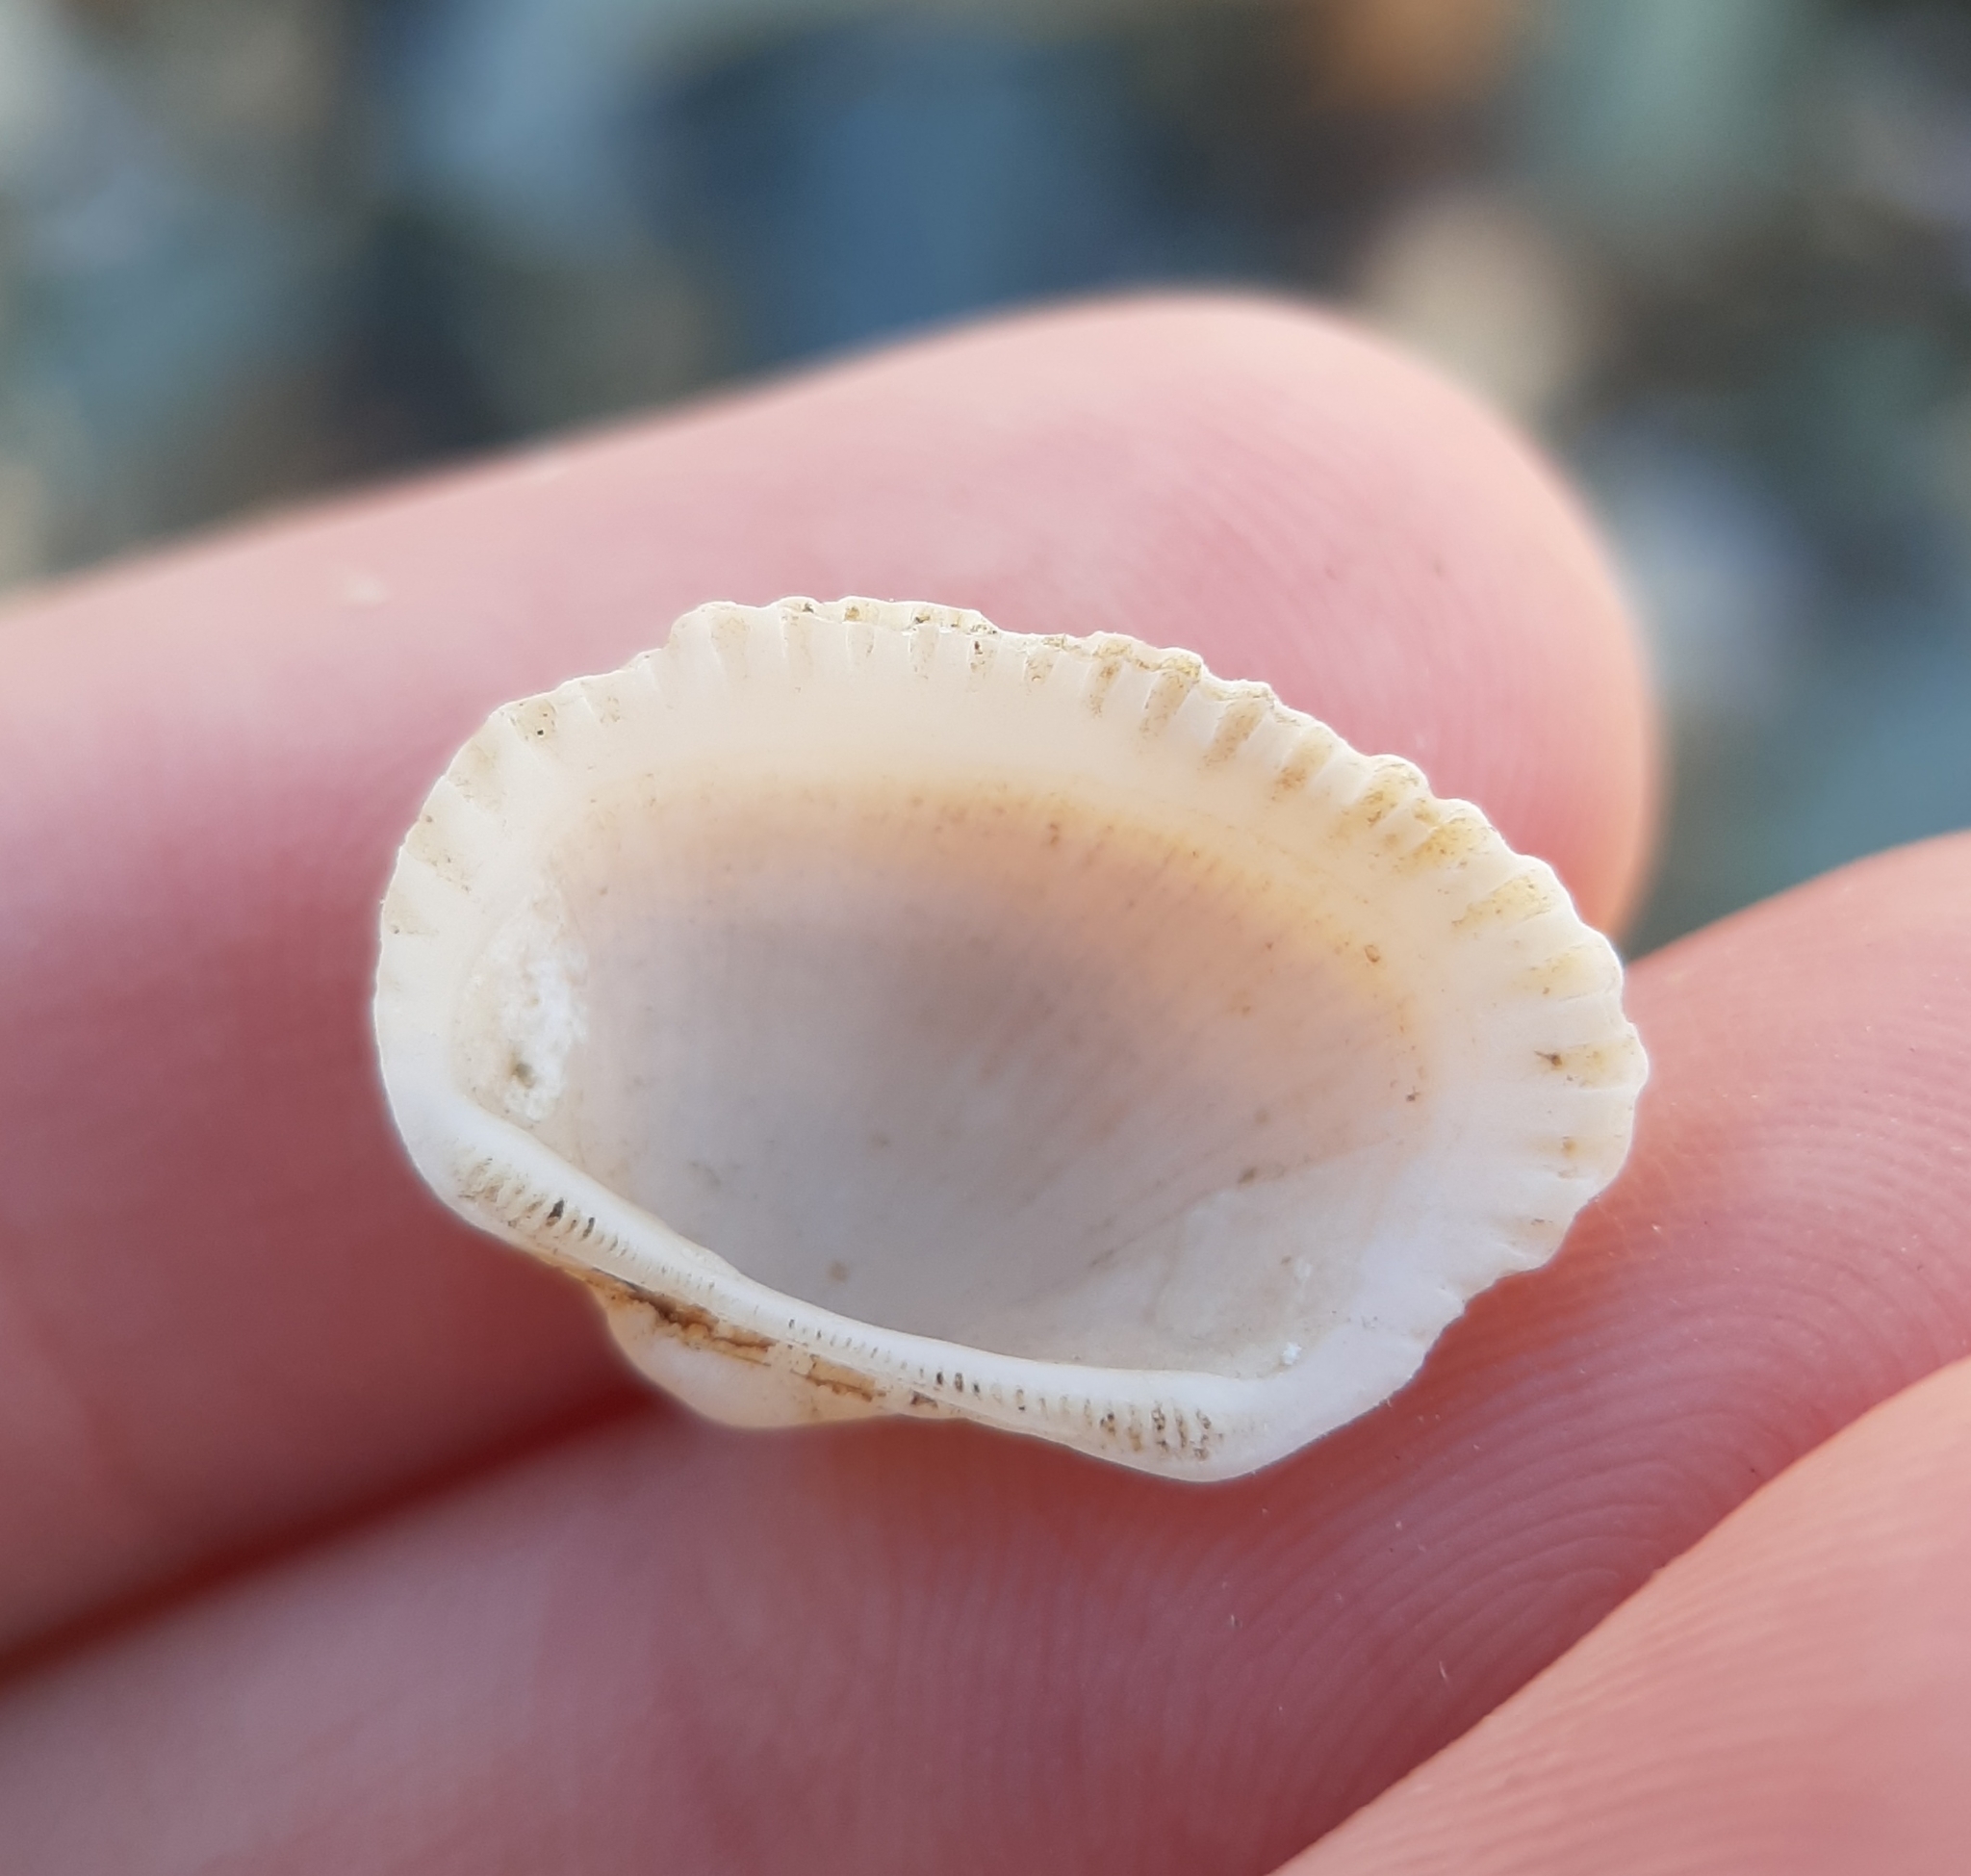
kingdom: Animalia
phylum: Mollusca
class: Bivalvia
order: Arcida
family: Arcidae
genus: Anadara
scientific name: Anadara transversa
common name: Transverse ark
